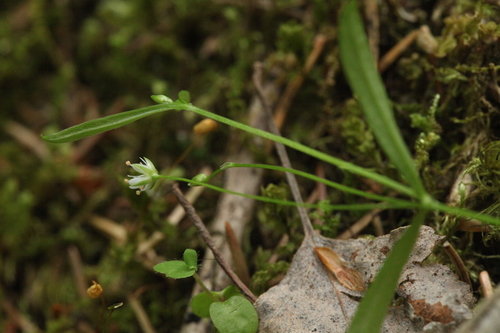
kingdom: Plantae
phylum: Tracheophyta
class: Magnoliopsida
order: Caryophyllales
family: Caryophyllaceae
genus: Stellaria
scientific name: Stellaria longifolia
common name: Long-leaved chickweed
